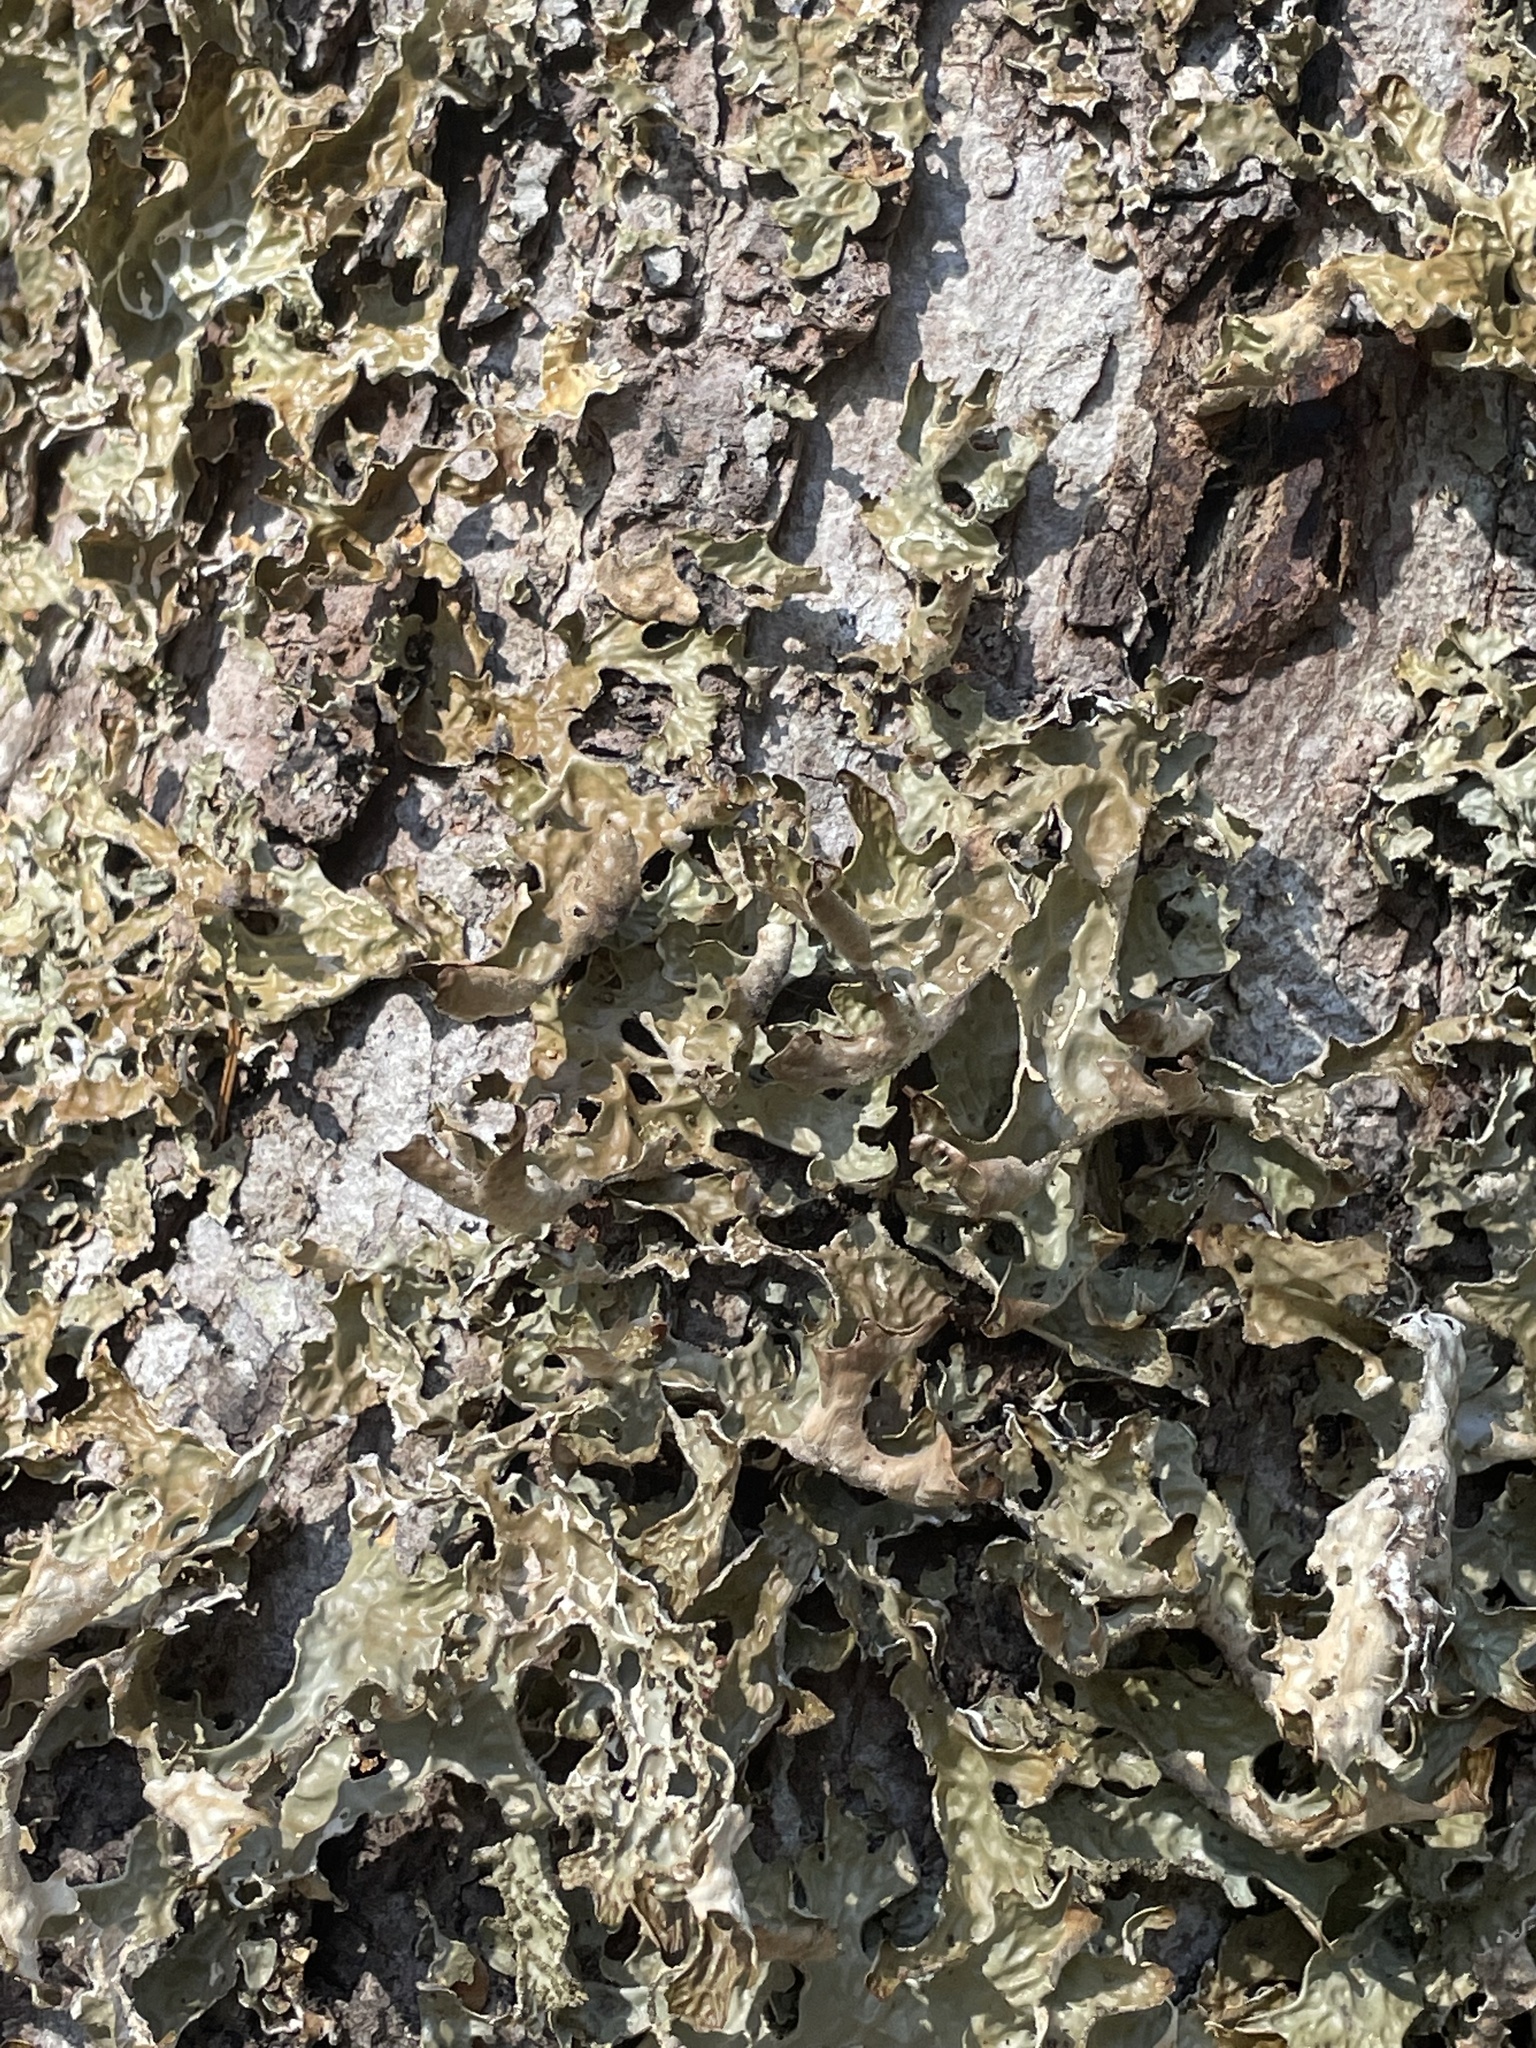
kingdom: Fungi
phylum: Ascomycota
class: Lecanoromycetes
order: Peltigerales
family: Lobariaceae
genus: Lobaria
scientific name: Lobaria pulmonaria
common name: Lungwort
